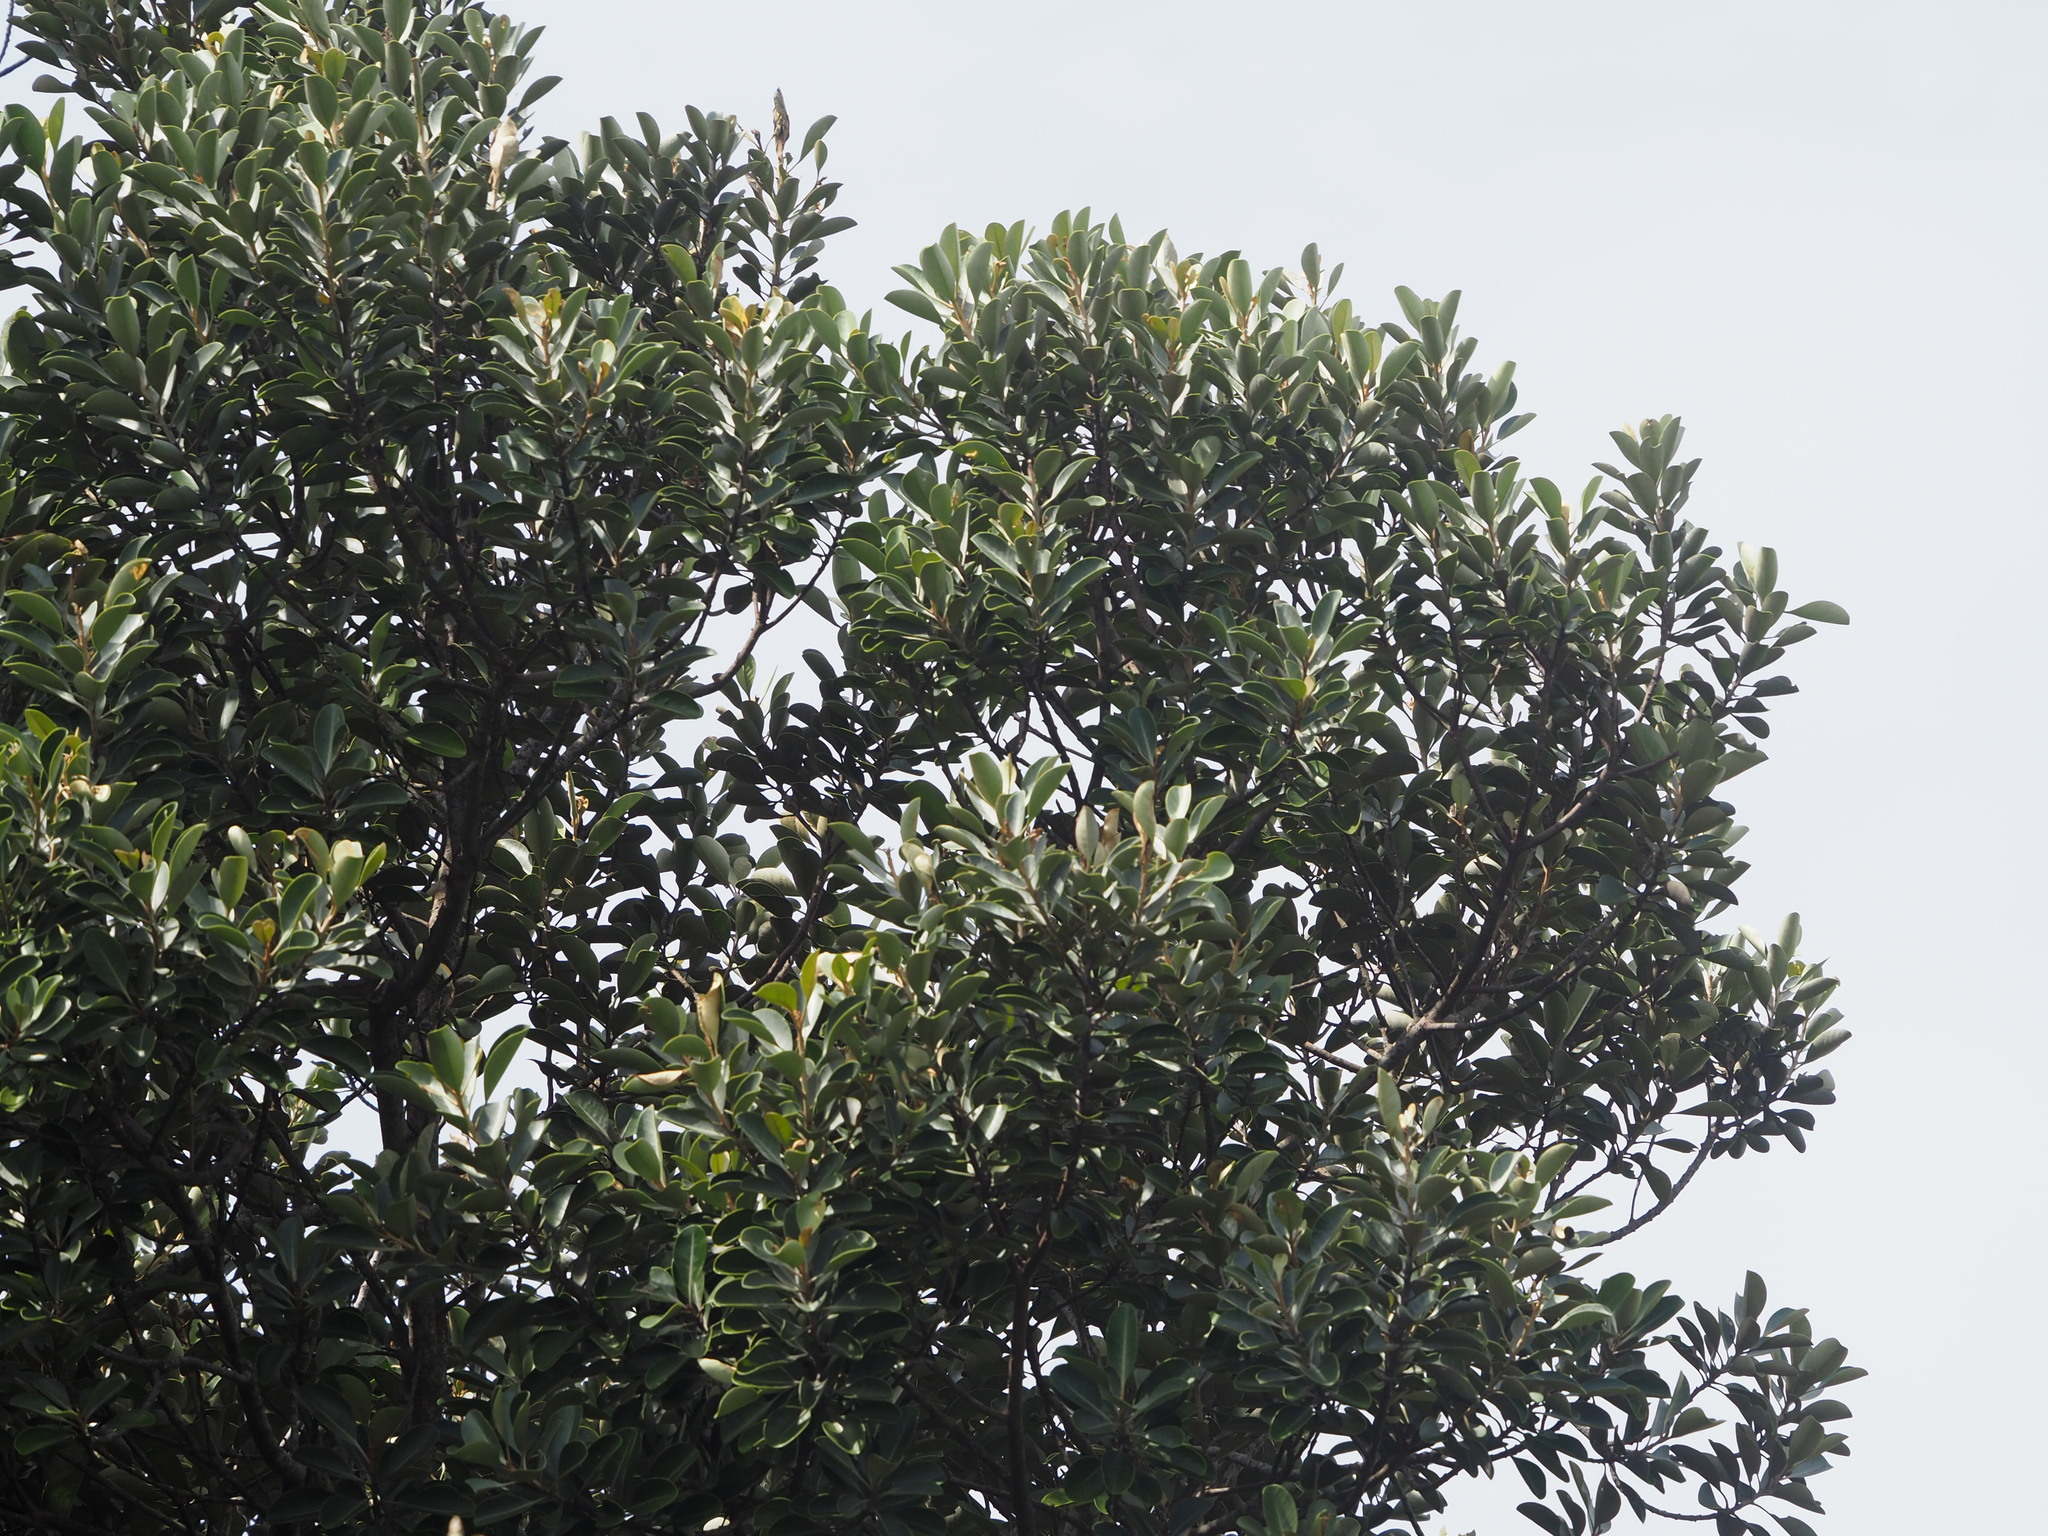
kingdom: Plantae
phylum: Tracheophyta
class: Magnoliopsida
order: Ericales
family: Sapotaceae
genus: Planchonella
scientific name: Planchonella obovata
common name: Black-ash
